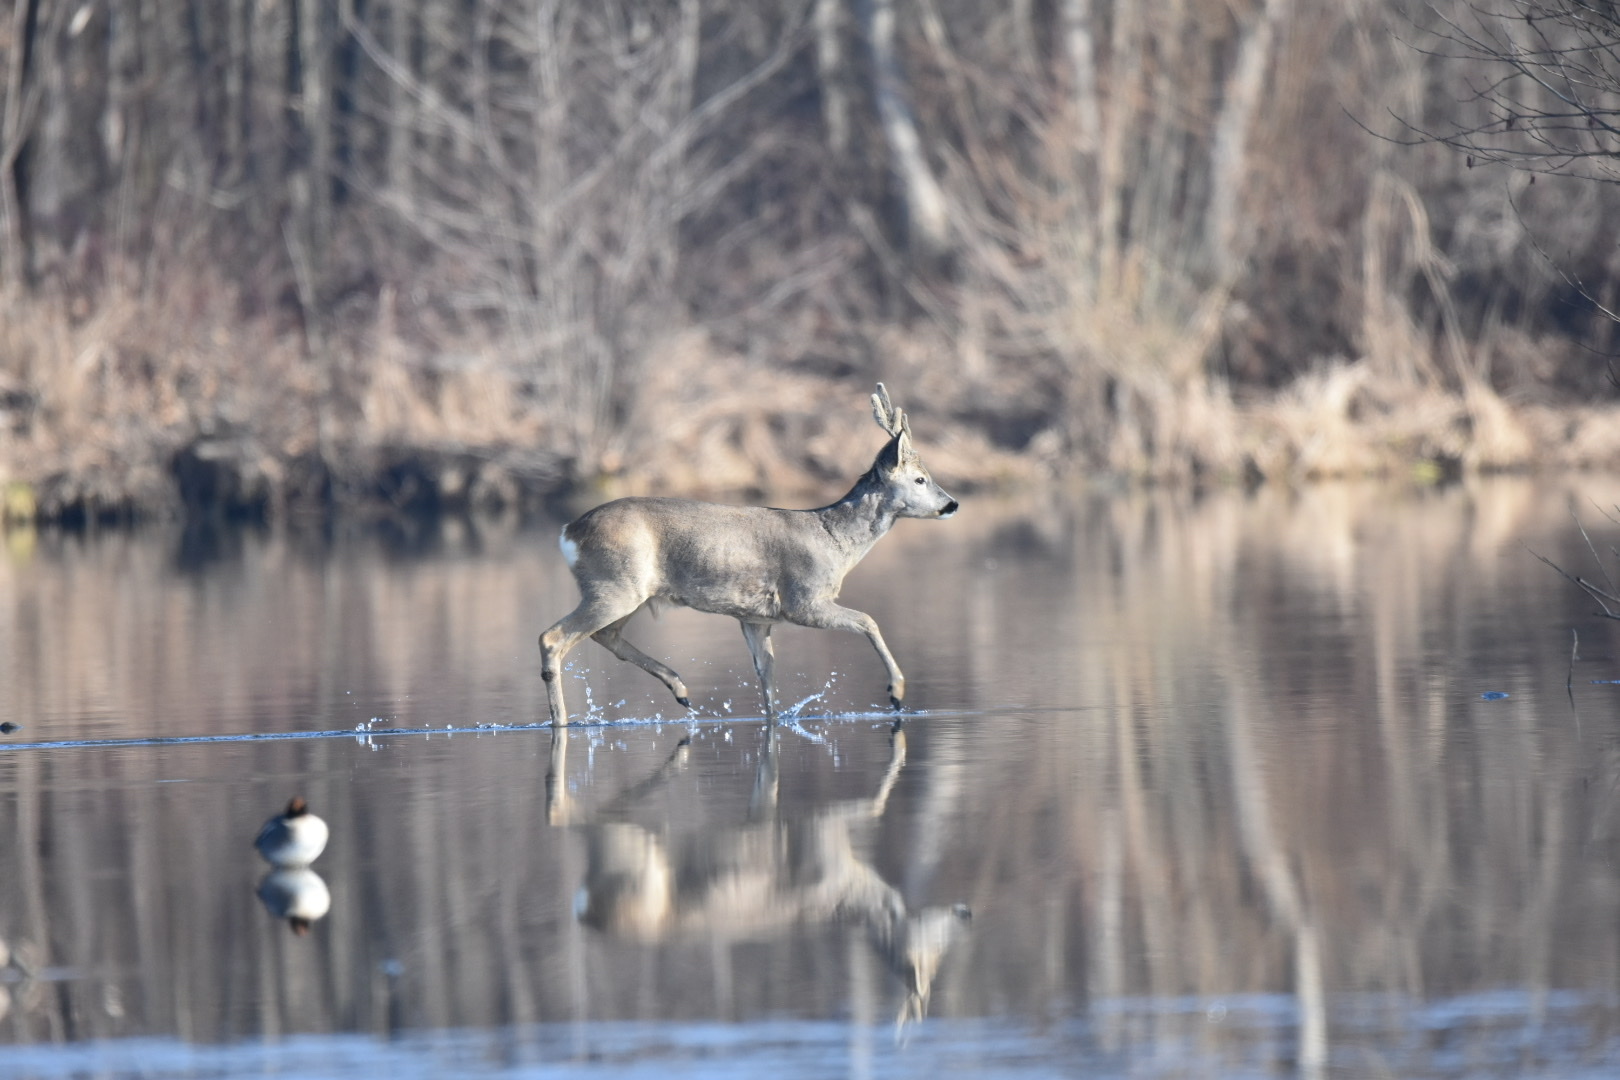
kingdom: Animalia
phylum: Chordata
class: Mammalia
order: Artiodactyla
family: Cervidae
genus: Capreolus
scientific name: Capreolus capreolus
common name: Western roe deer
